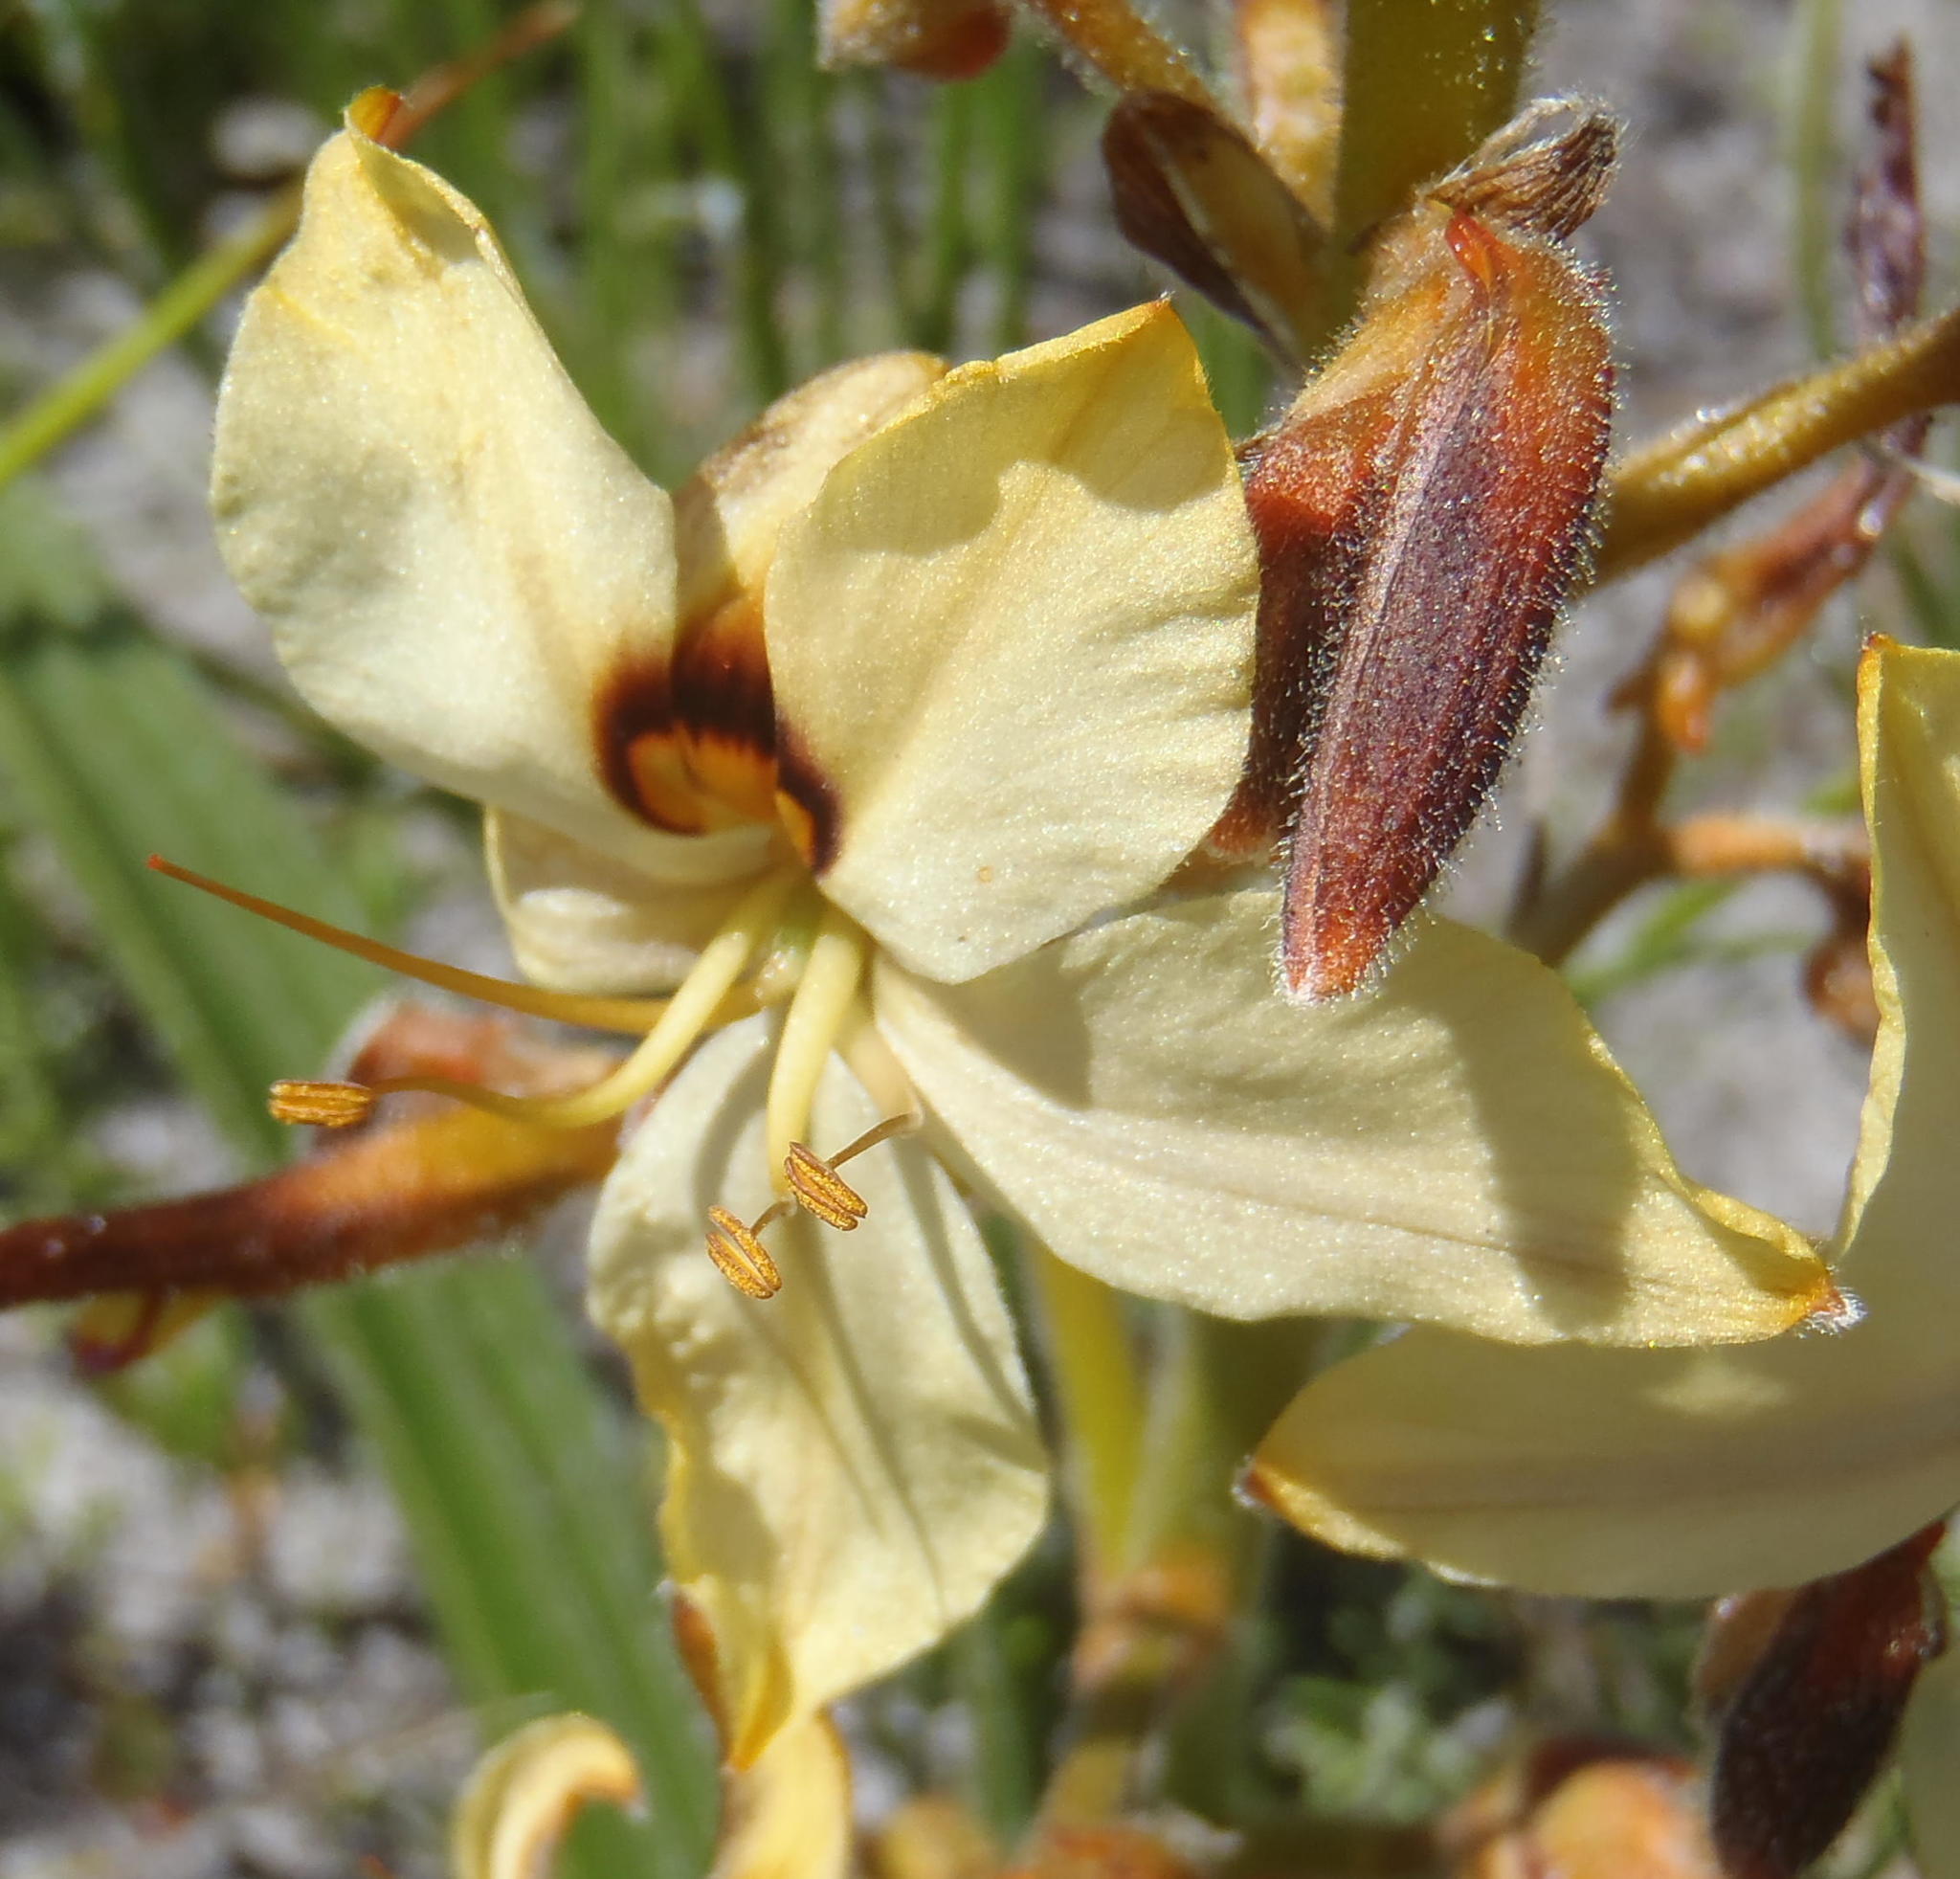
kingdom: Plantae
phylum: Tracheophyta
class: Liliopsida
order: Commelinales
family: Haemodoraceae
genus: Wachendorfia
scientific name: Wachendorfia paniculata
